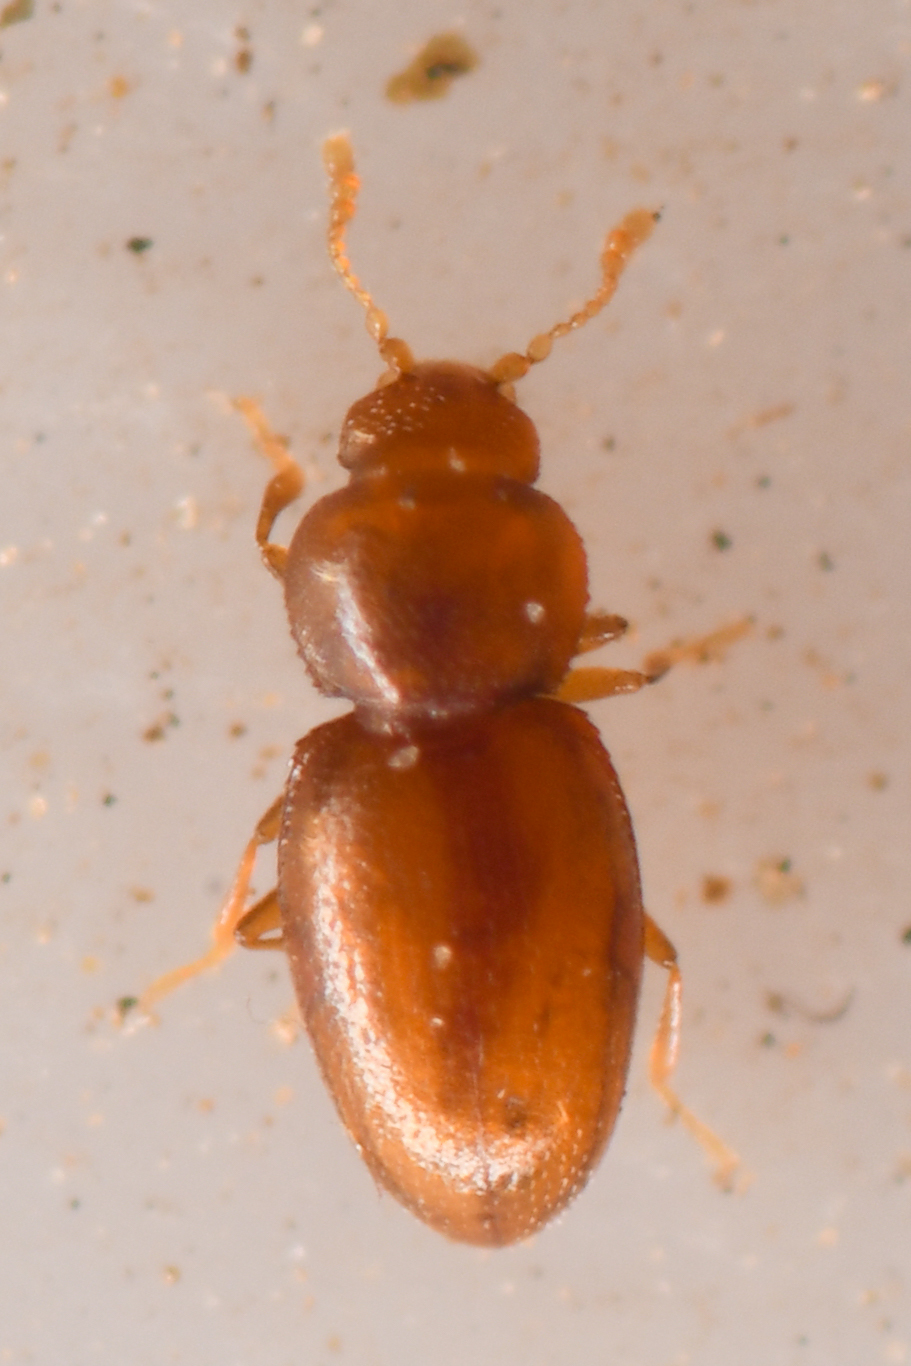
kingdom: Animalia
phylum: Arthropoda
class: Insecta
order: Coleoptera
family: Latridiidae
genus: Fuchsina
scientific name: Fuchsina
